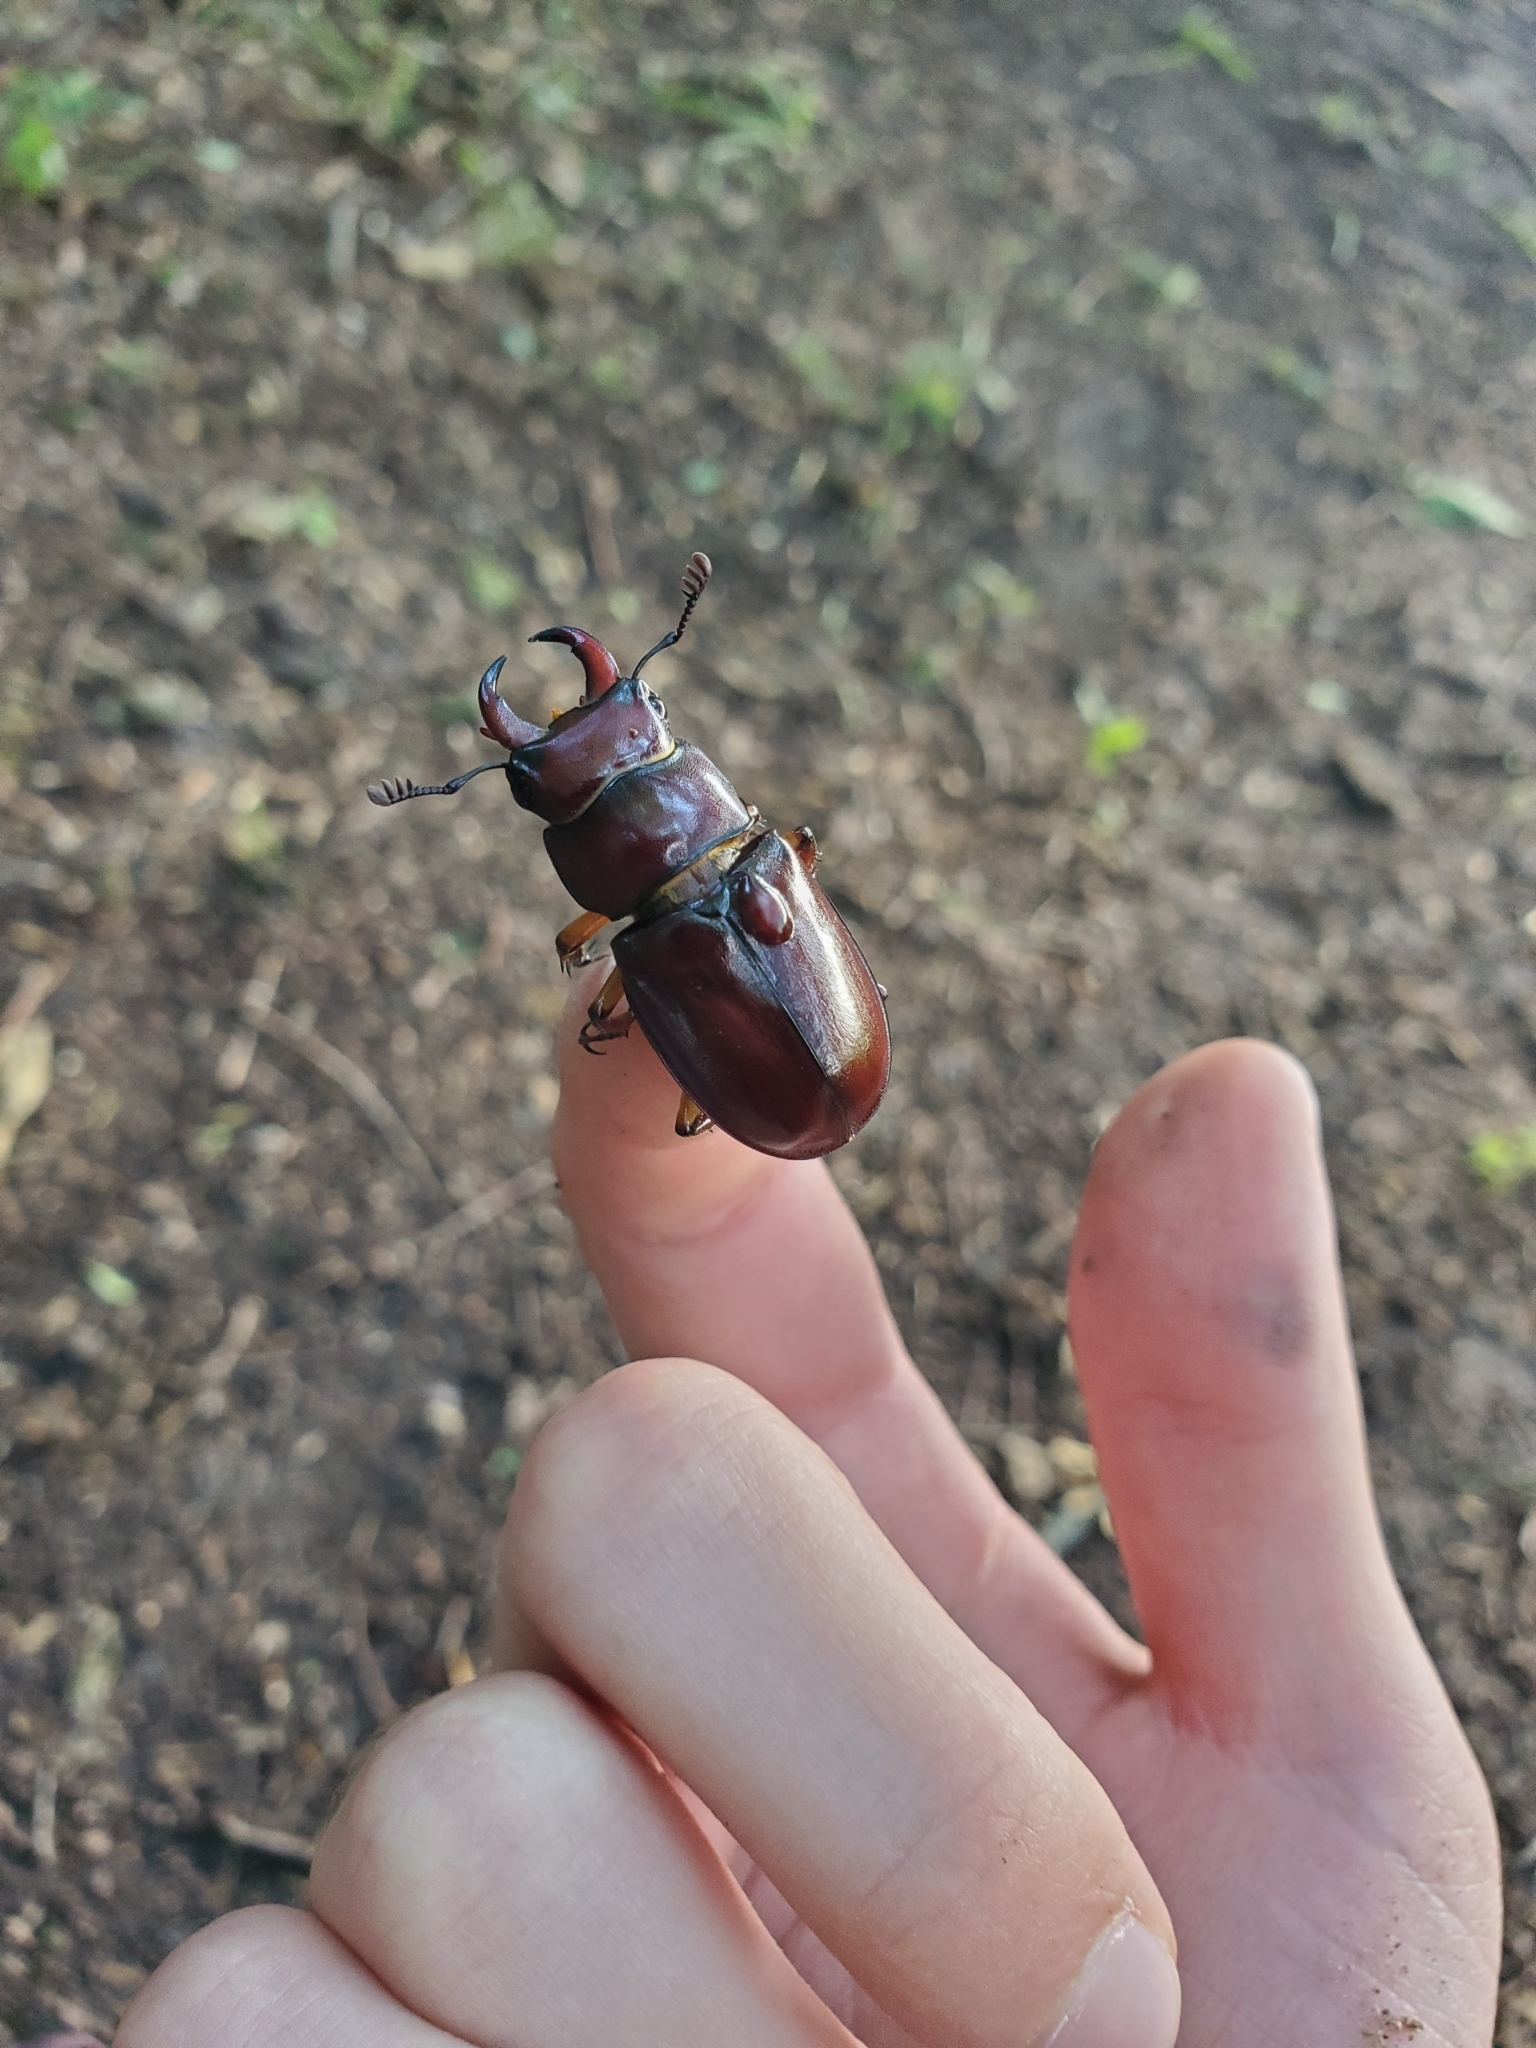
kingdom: Animalia
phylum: Arthropoda
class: Insecta
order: Coleoptera
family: Lucanidae
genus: Lucanus
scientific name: Lucanus capreolus
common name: Stag beetle
